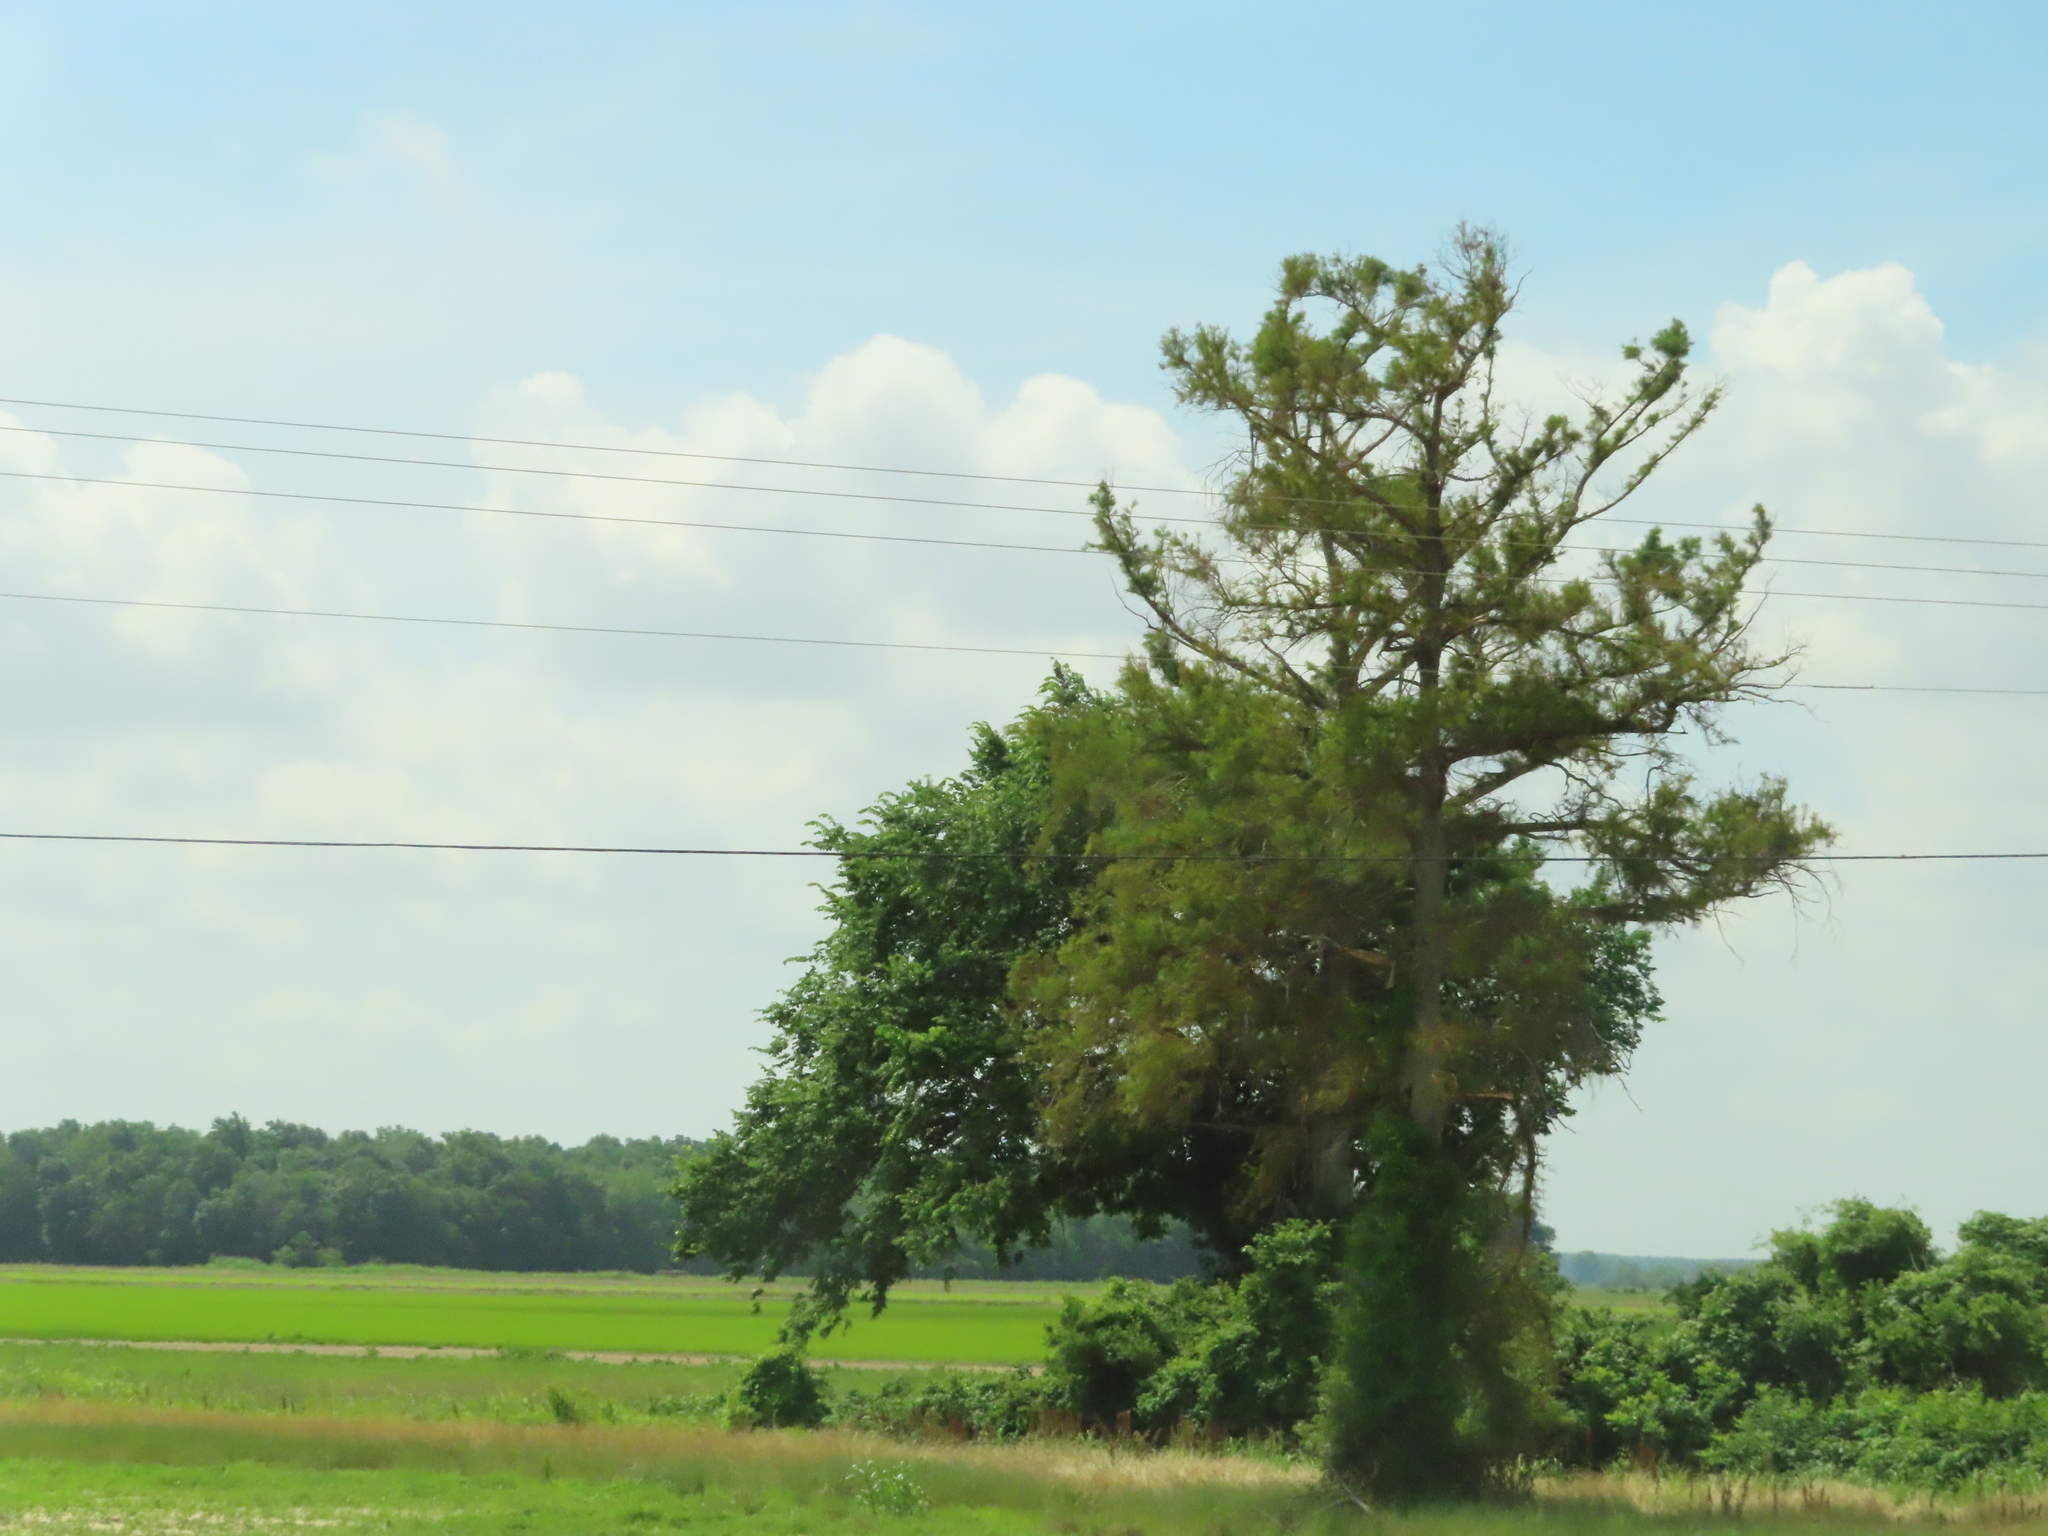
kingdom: Plantae
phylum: Tracheophyta
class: Pinopsida
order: Pinales
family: Cupressaceae
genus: Taxodium
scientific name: Taxodium distichum
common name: Bald cypress
